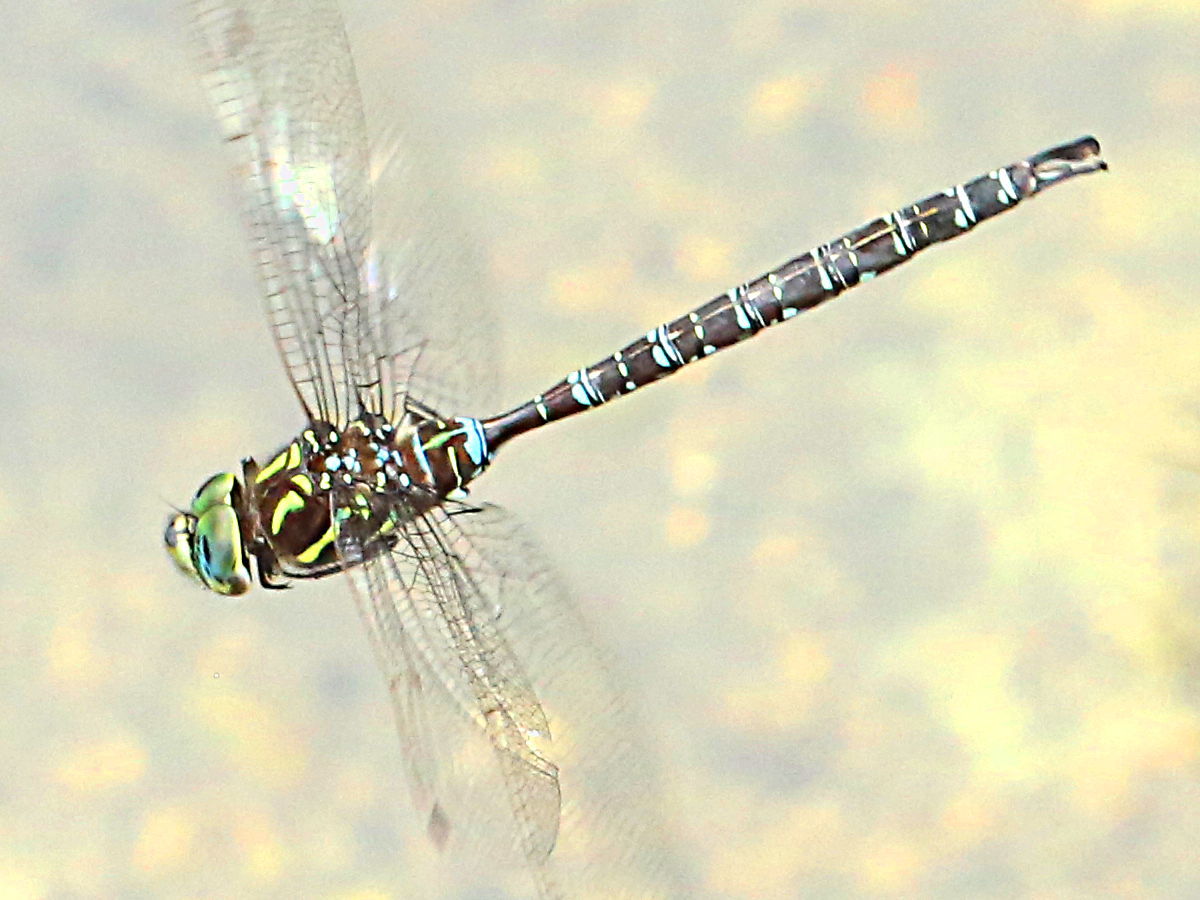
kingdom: Animalia
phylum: Arthropoda
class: Insecta
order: Odonata
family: Aeshnidae
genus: Aeshna
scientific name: Aeshna umbrosa
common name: Shadow darner
